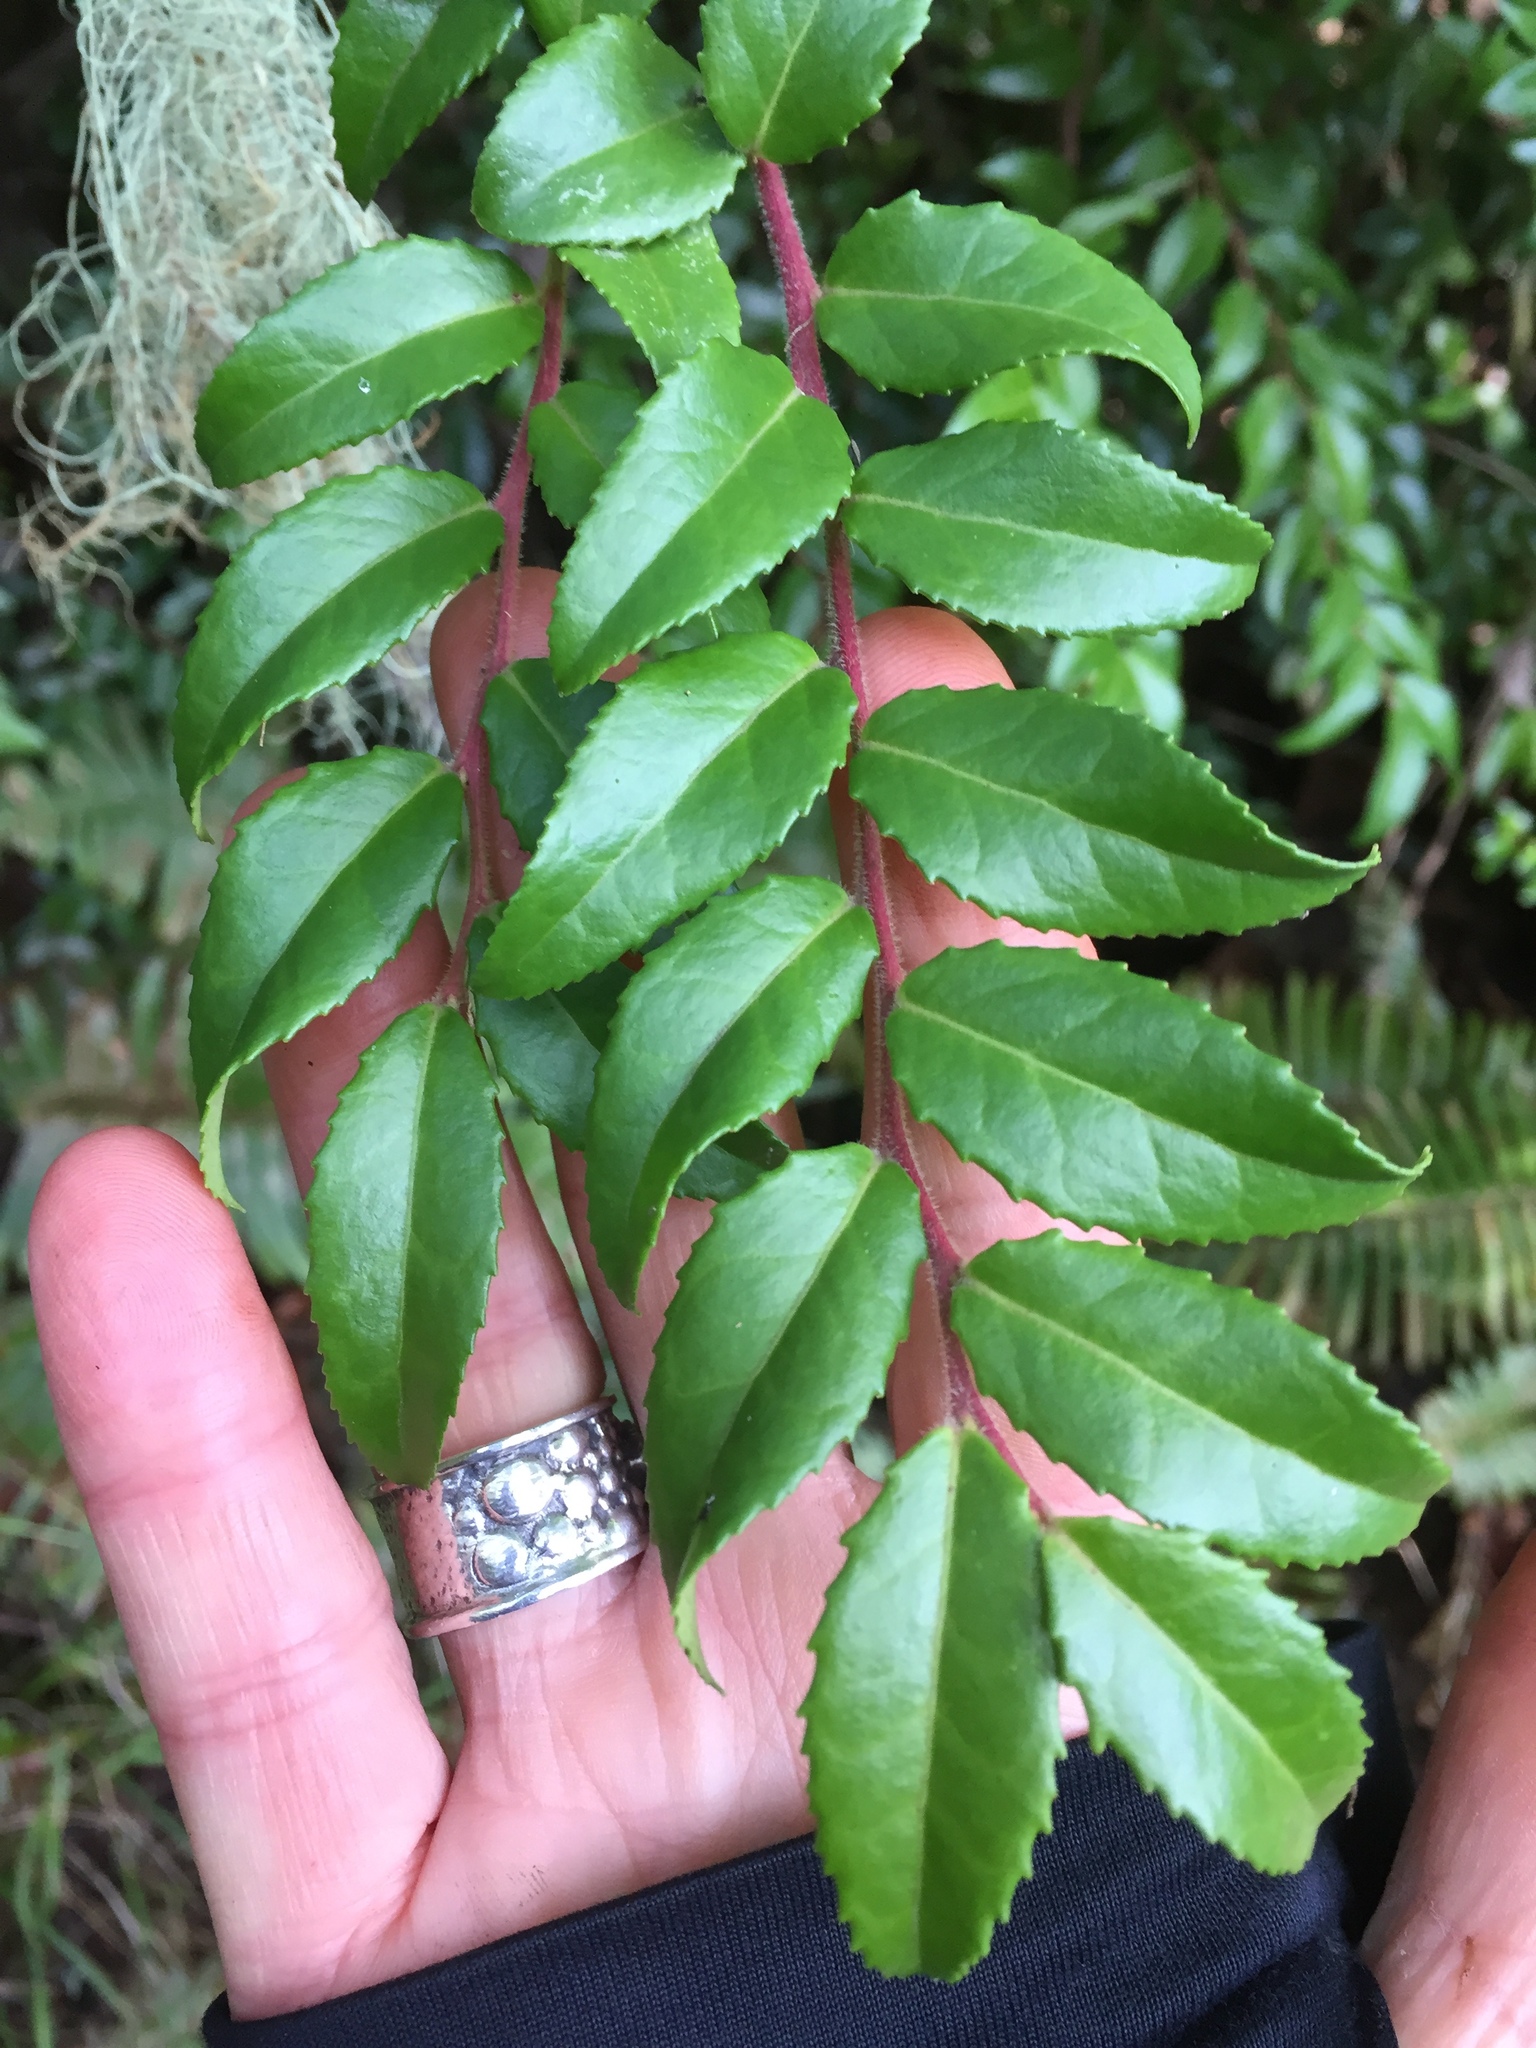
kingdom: Plantae
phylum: Tracheophyta
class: Magnoliopsida
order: Ericales
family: Ericaceae
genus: Vaccinium
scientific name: Vaccinium ovatum
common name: California-huckleberry
